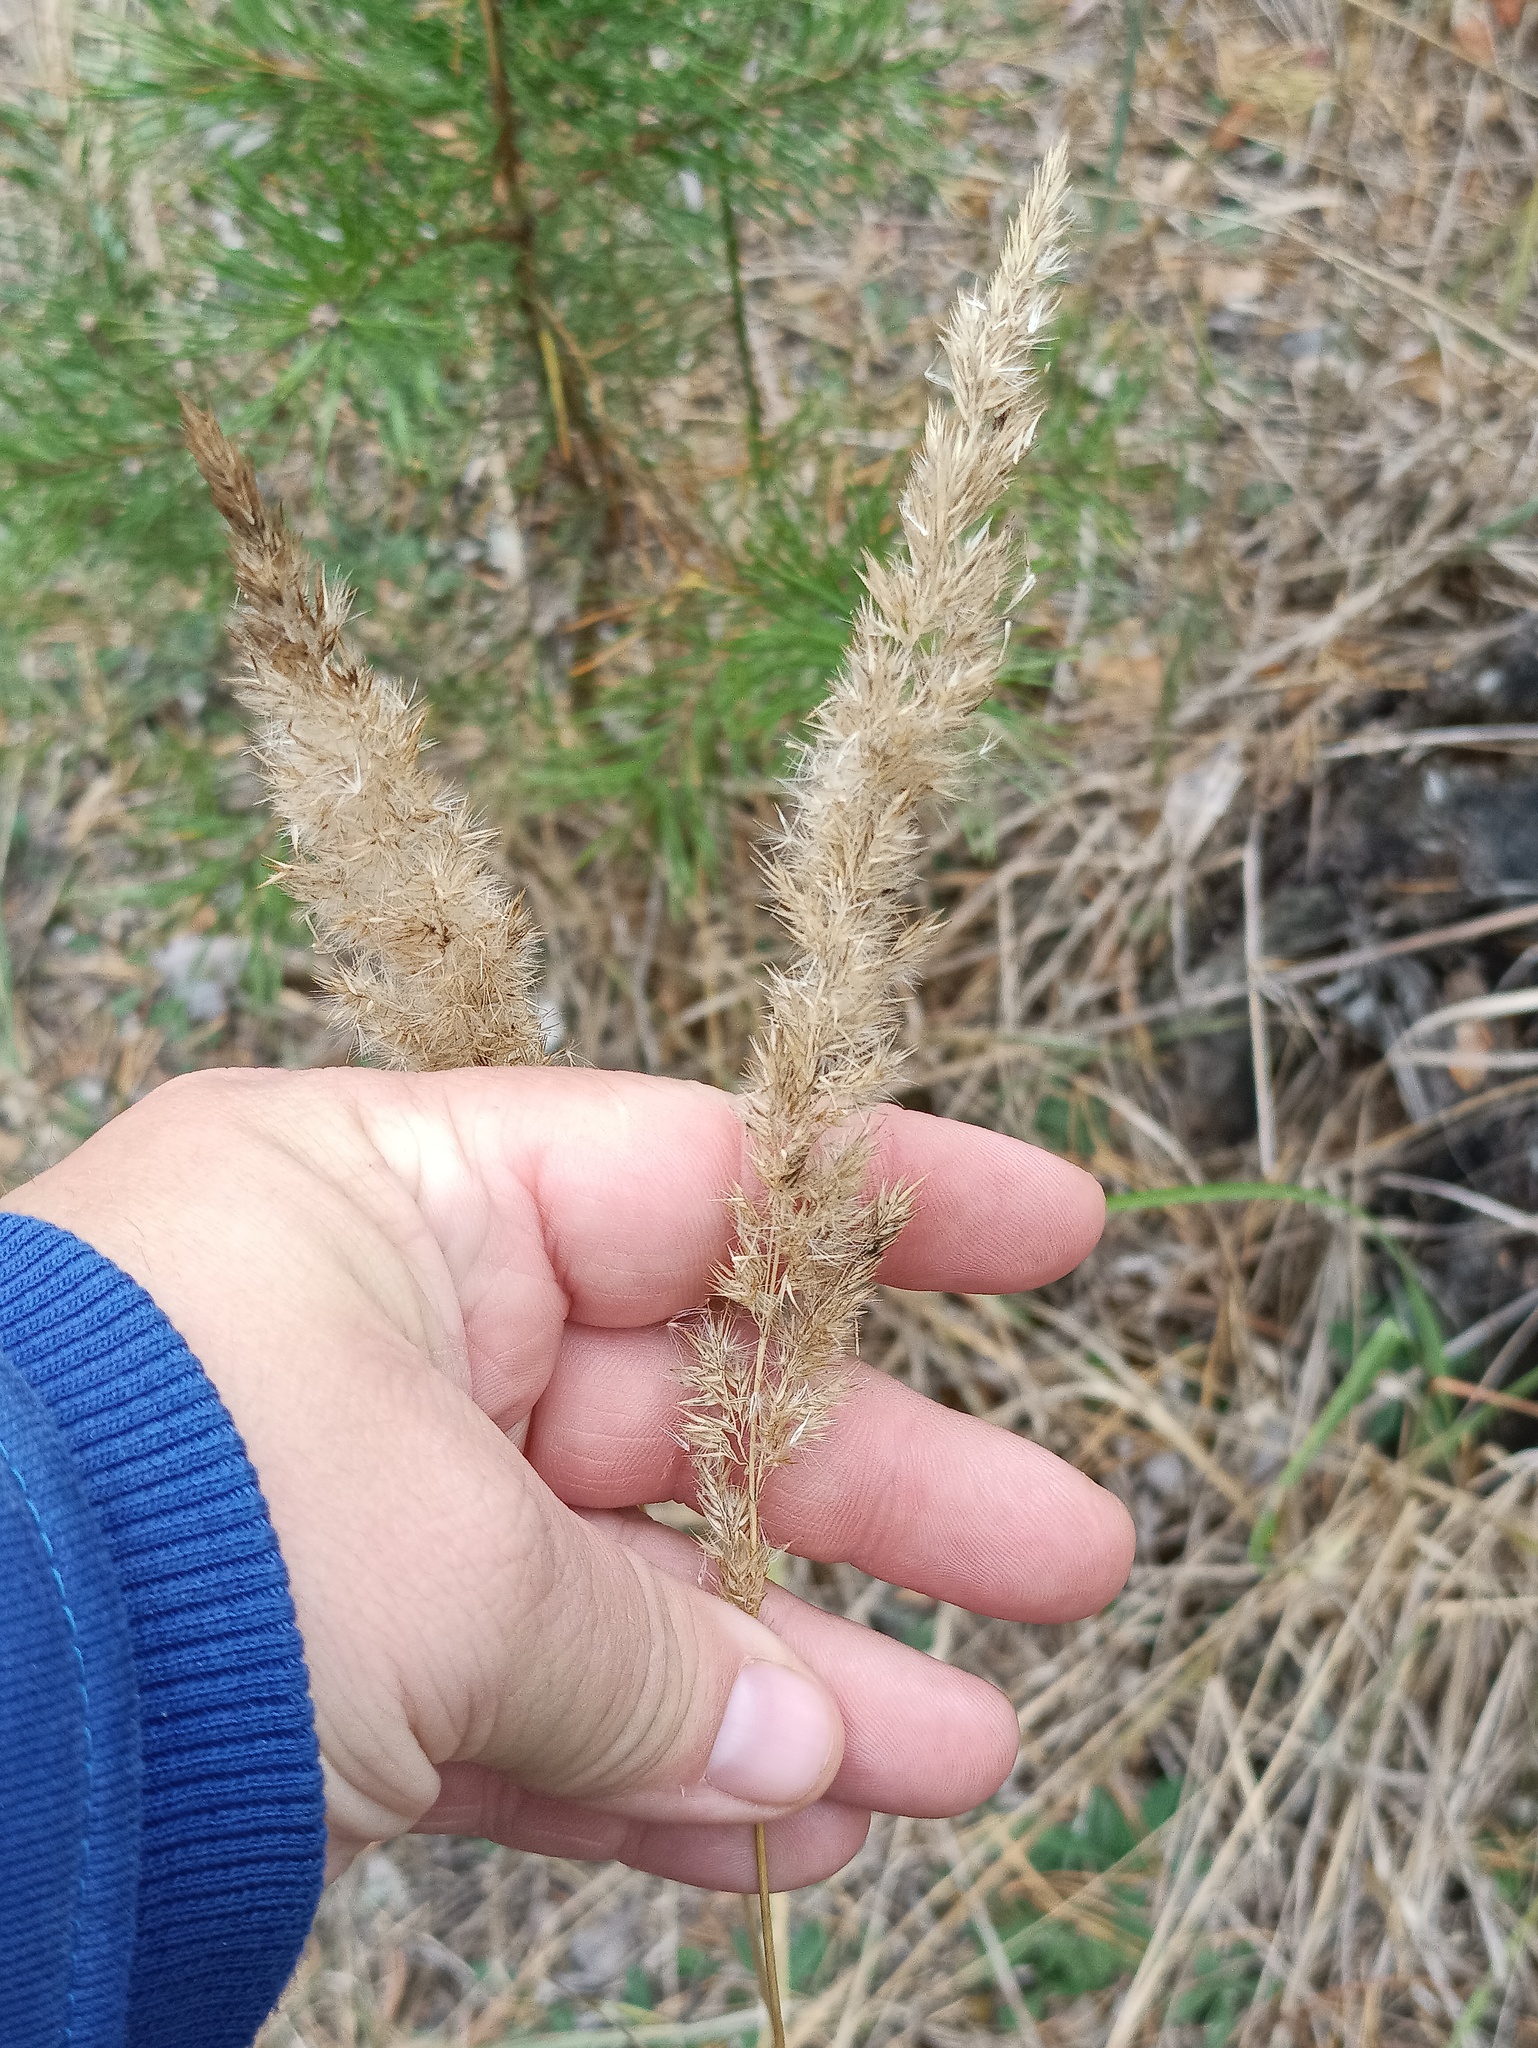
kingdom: Plantae
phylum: Tracheophyta
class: Liliopsida
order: Poales
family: Poaceae
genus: Calamagrostis
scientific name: Calamagrostis epigejos
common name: Wood small-reed
